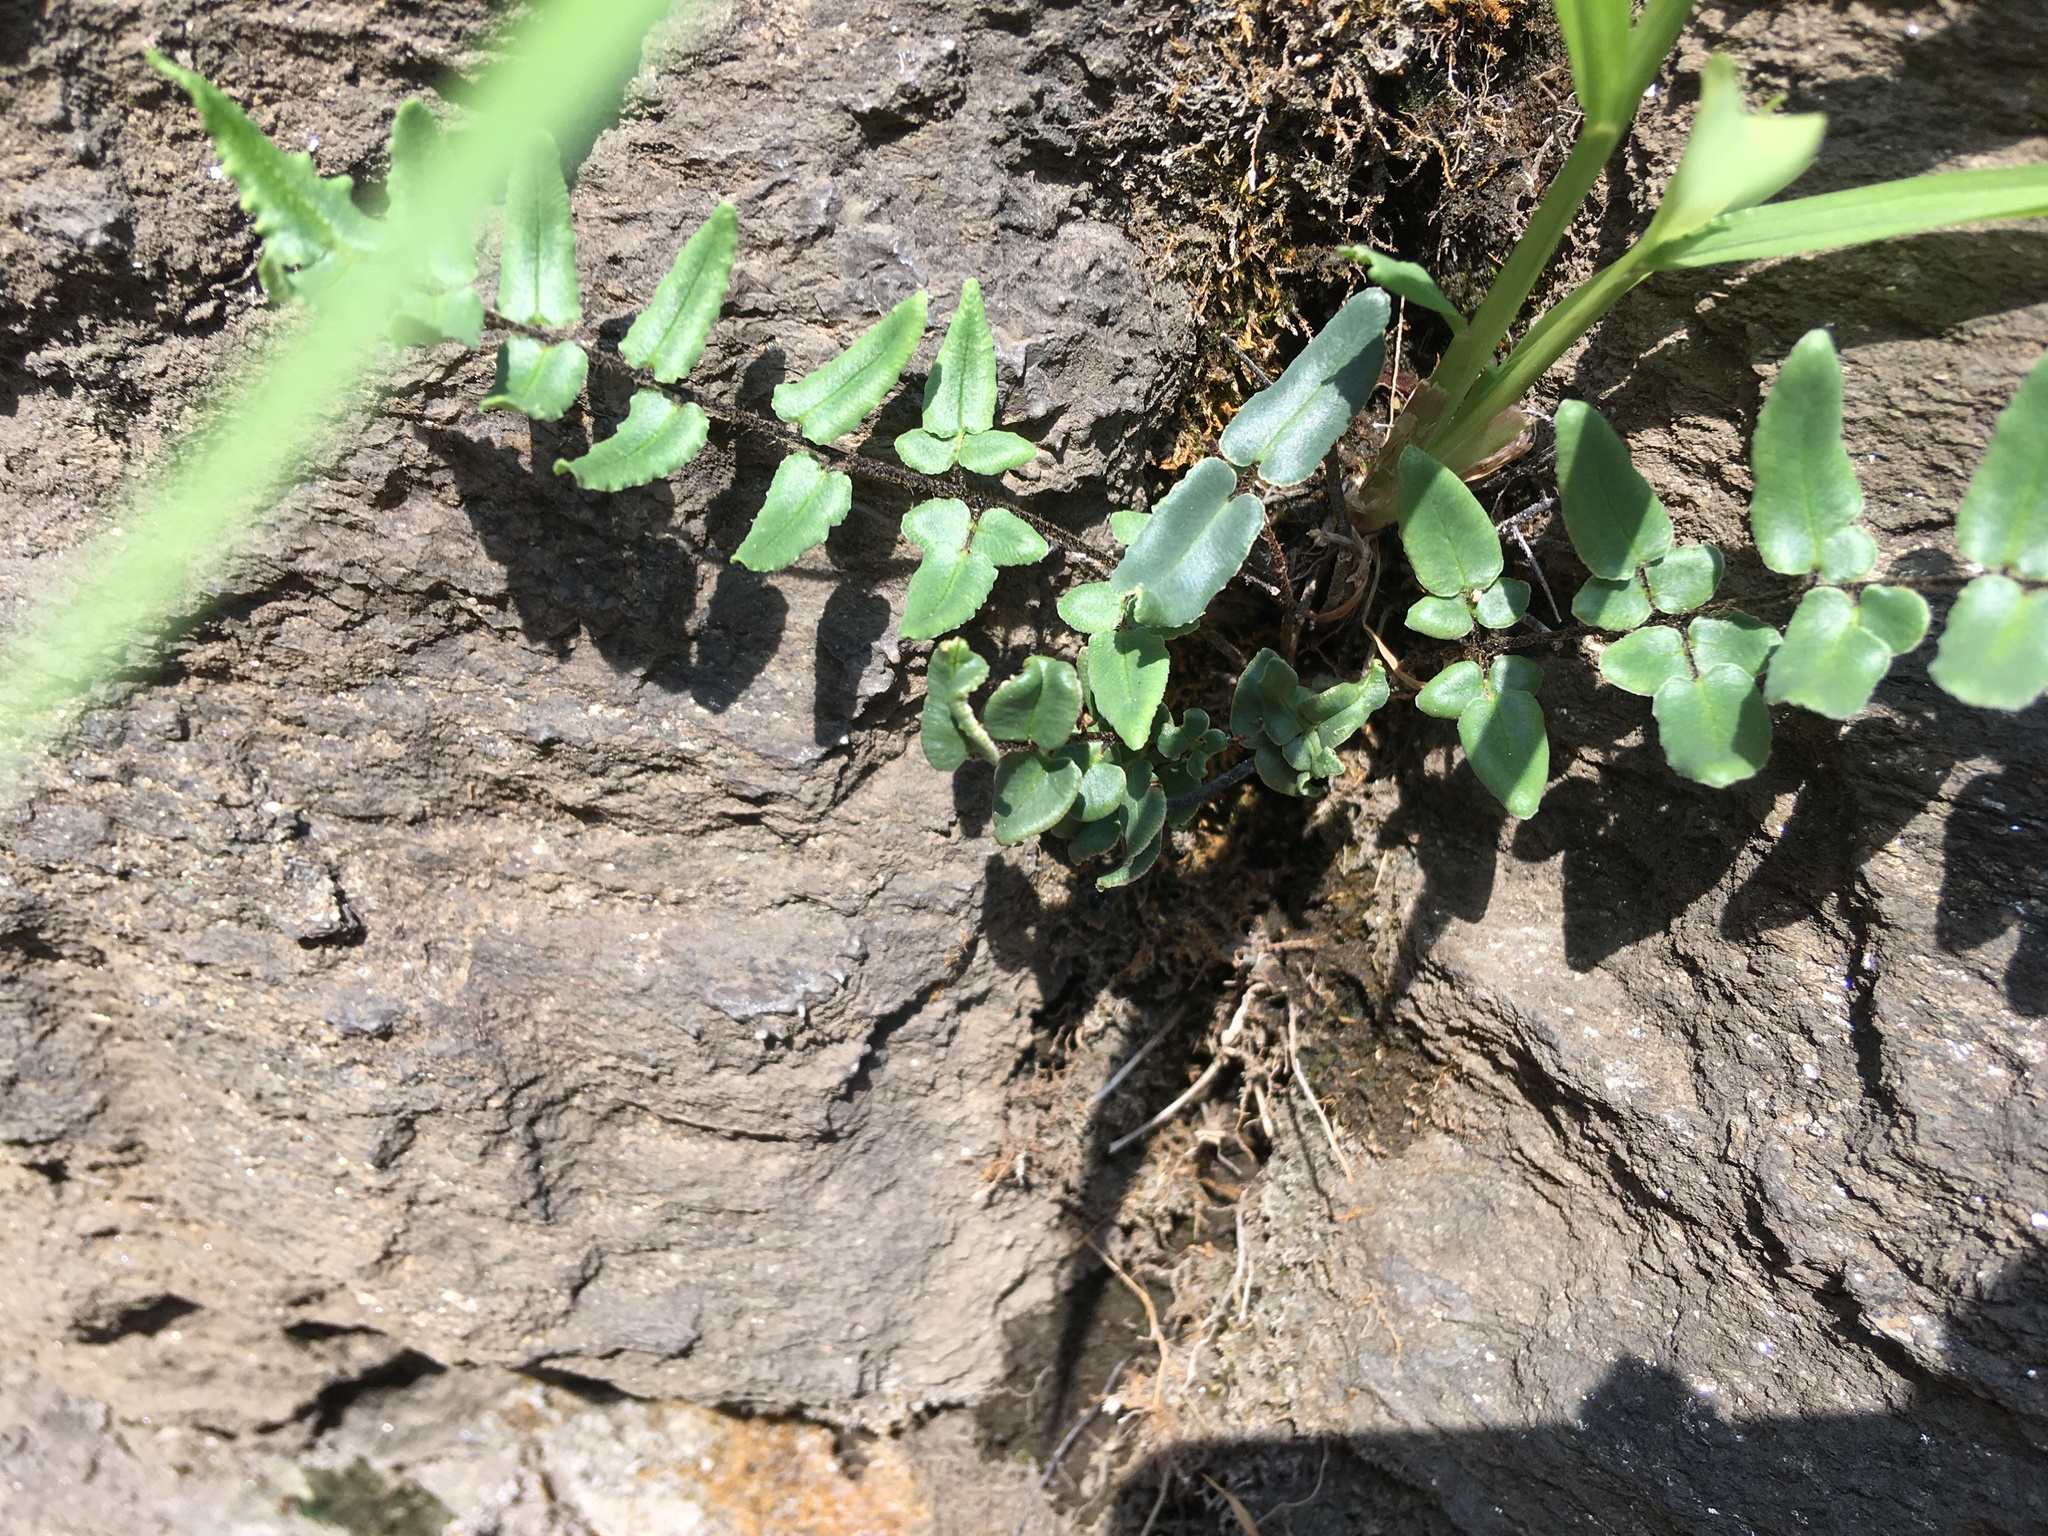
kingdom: Plantae
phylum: Tracheophyta
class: Polypodiopsida
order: Polypodiales
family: Pteridaceae
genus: Pellaea
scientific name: Pellaea atropurpurea
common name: Hairy cliffbrake
